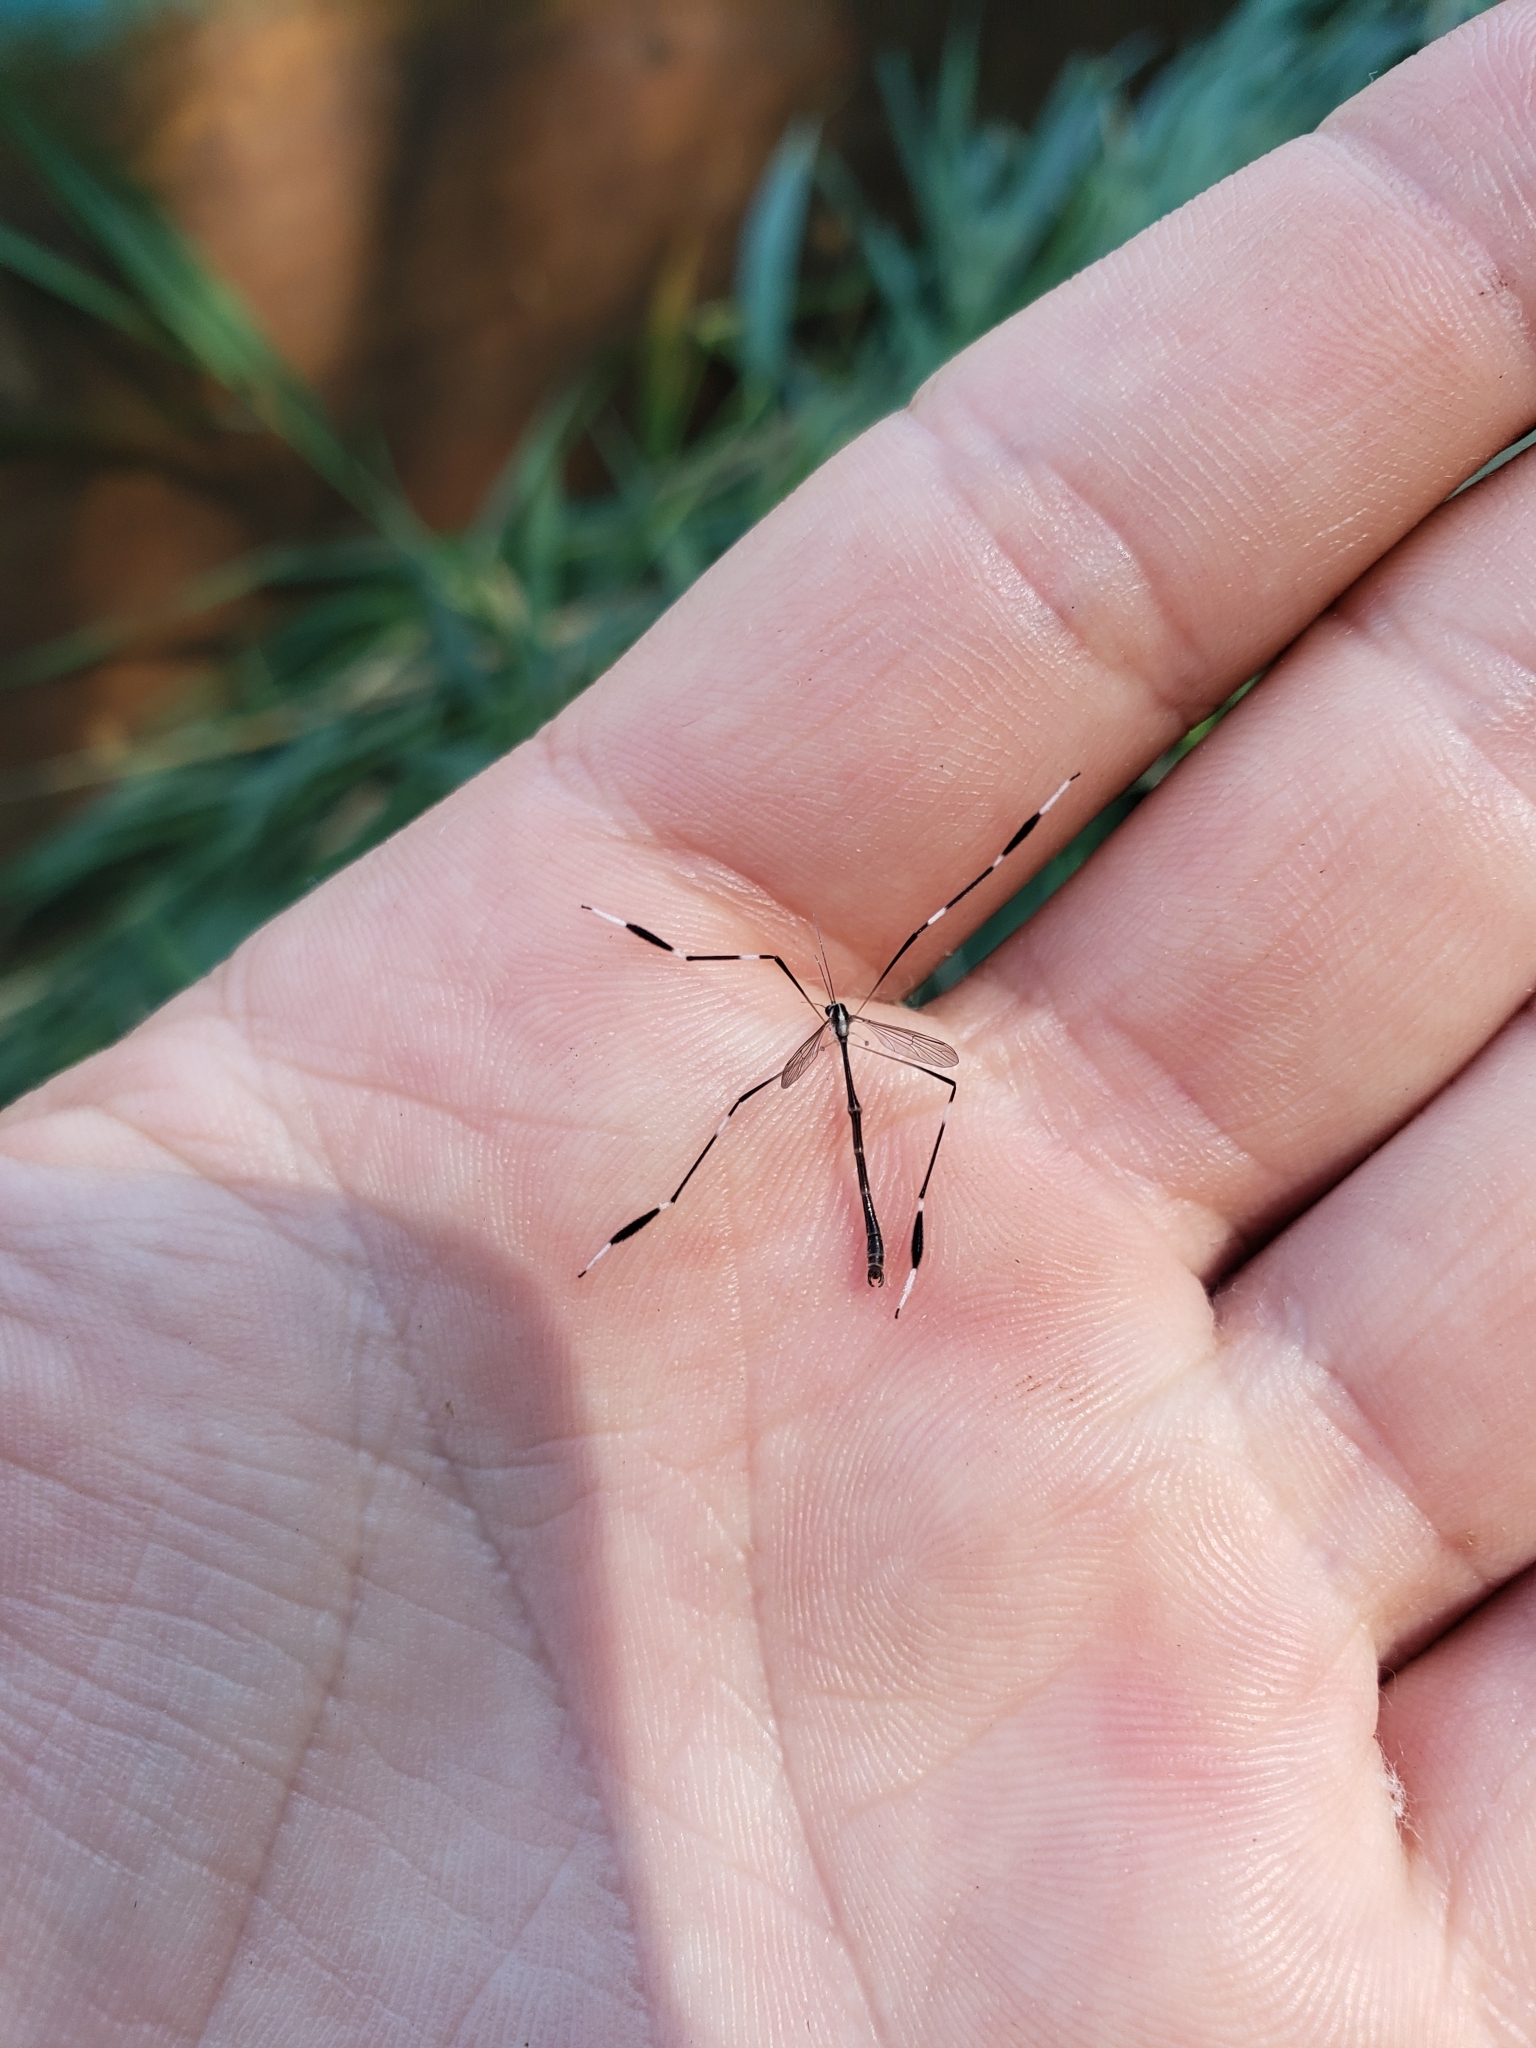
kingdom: Animalia
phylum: Arthropoda
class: Insecta
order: Diptera
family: Ptychopteridae
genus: Bittacomorpha
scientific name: Bittacomorpha clavipes
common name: Eastern phantom crane fly
